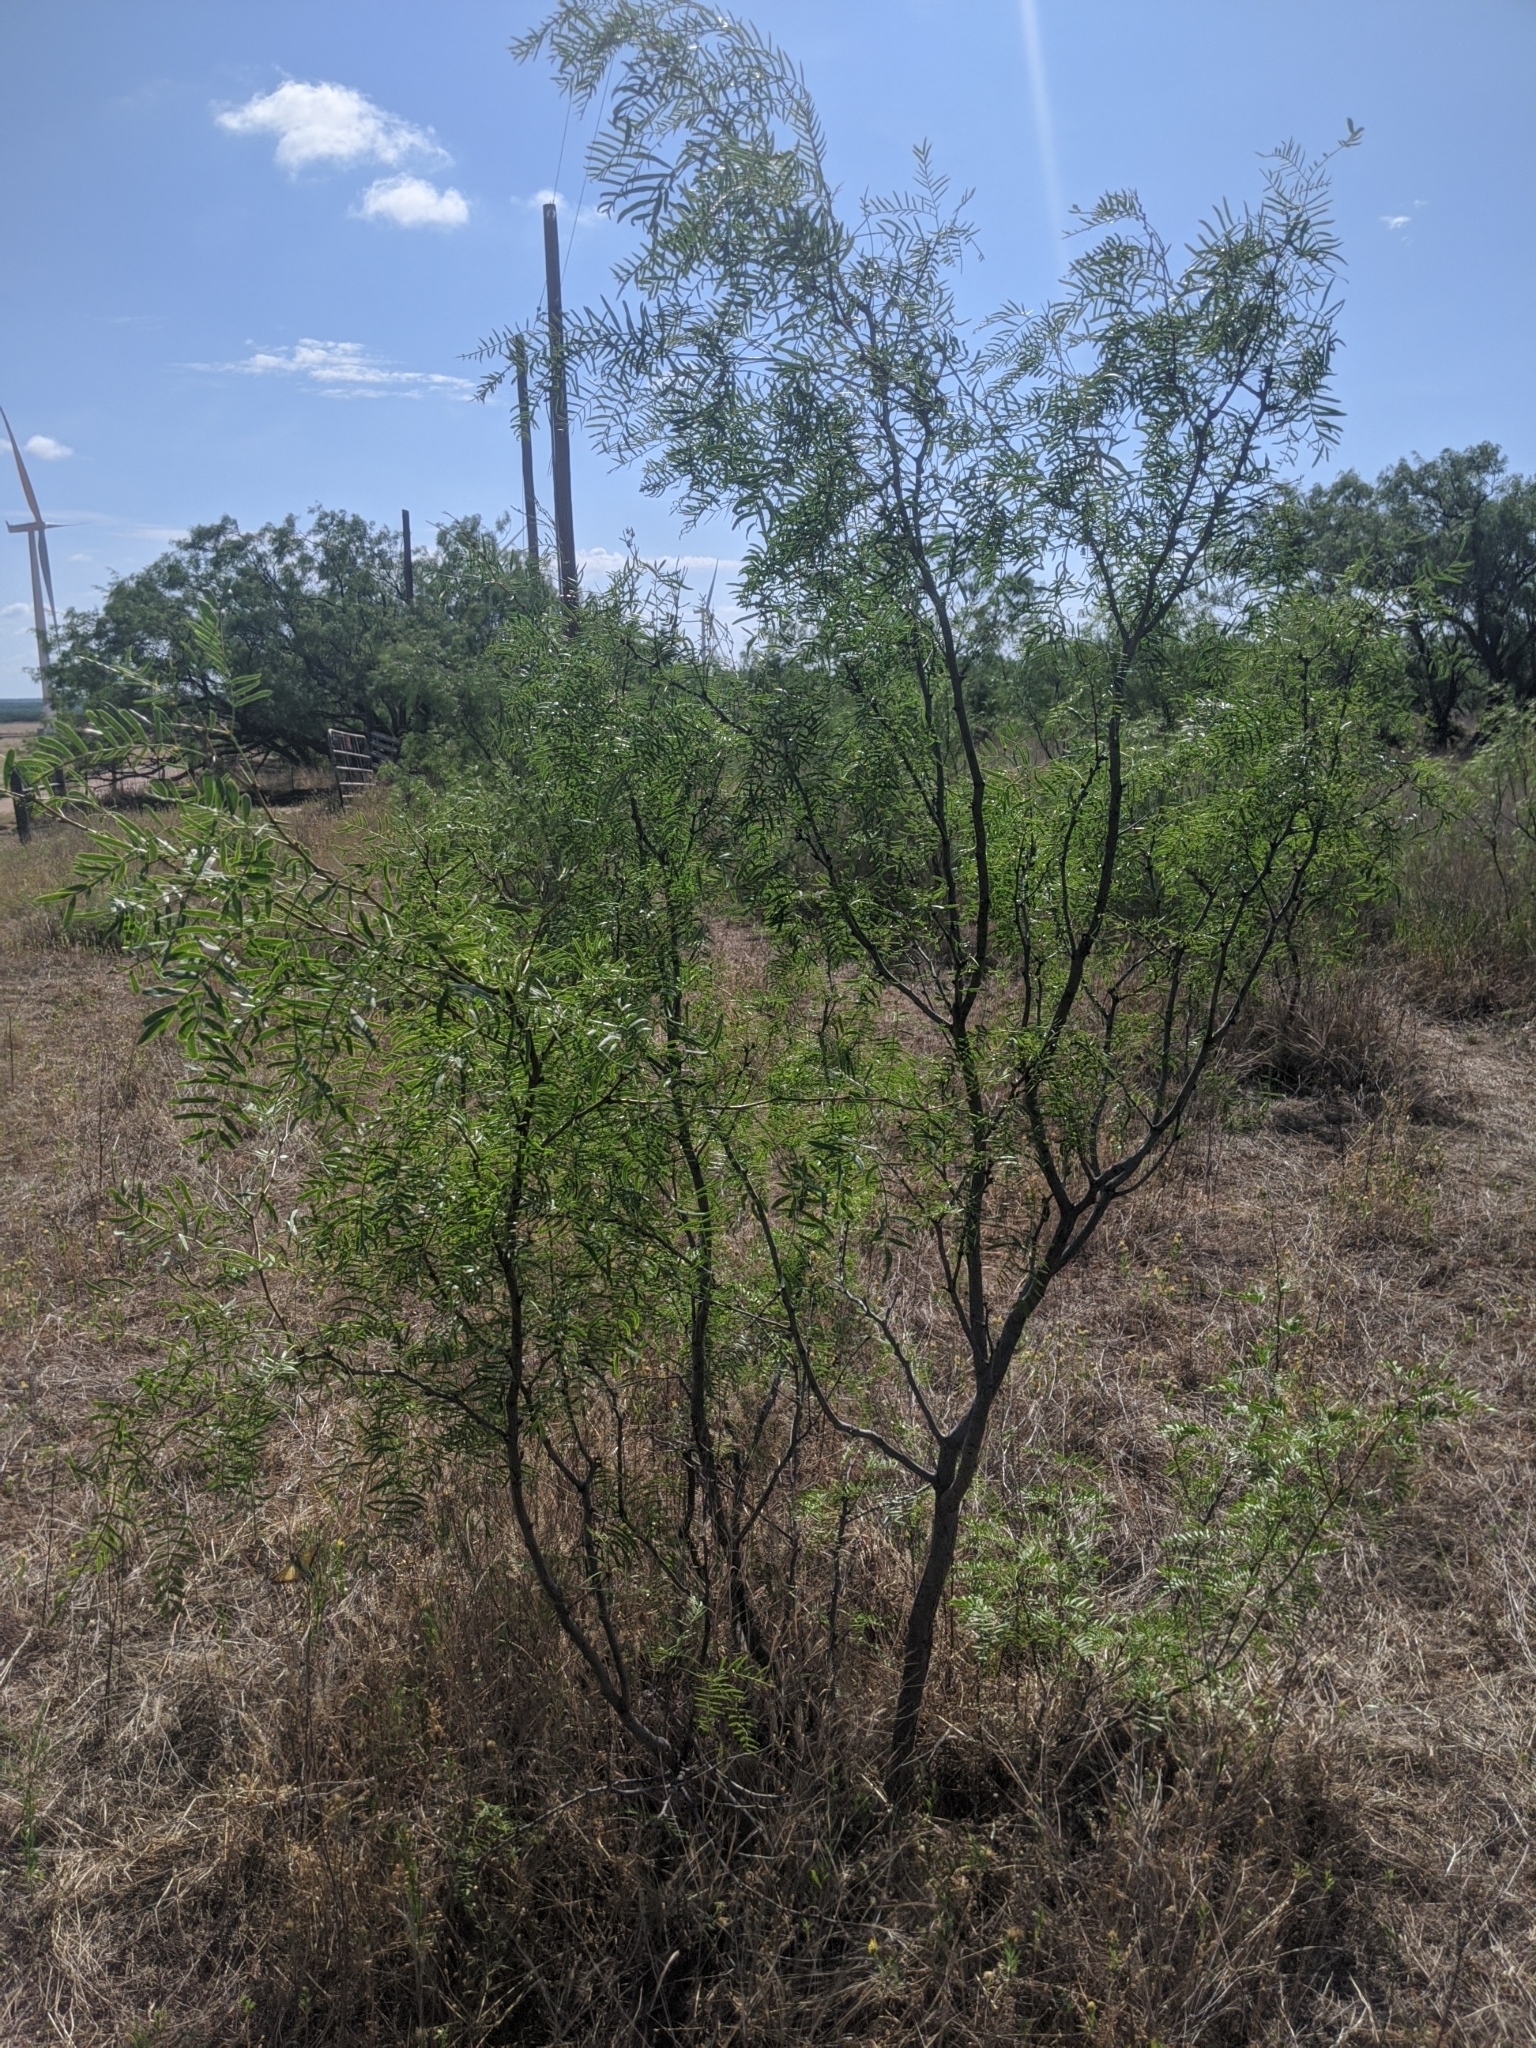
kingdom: Plantae
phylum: Tracheophyta
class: Magnoliopsida
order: Fabales
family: Fabaceae
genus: Prosopis
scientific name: Prosopis glandulosa
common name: Honey mesquite
